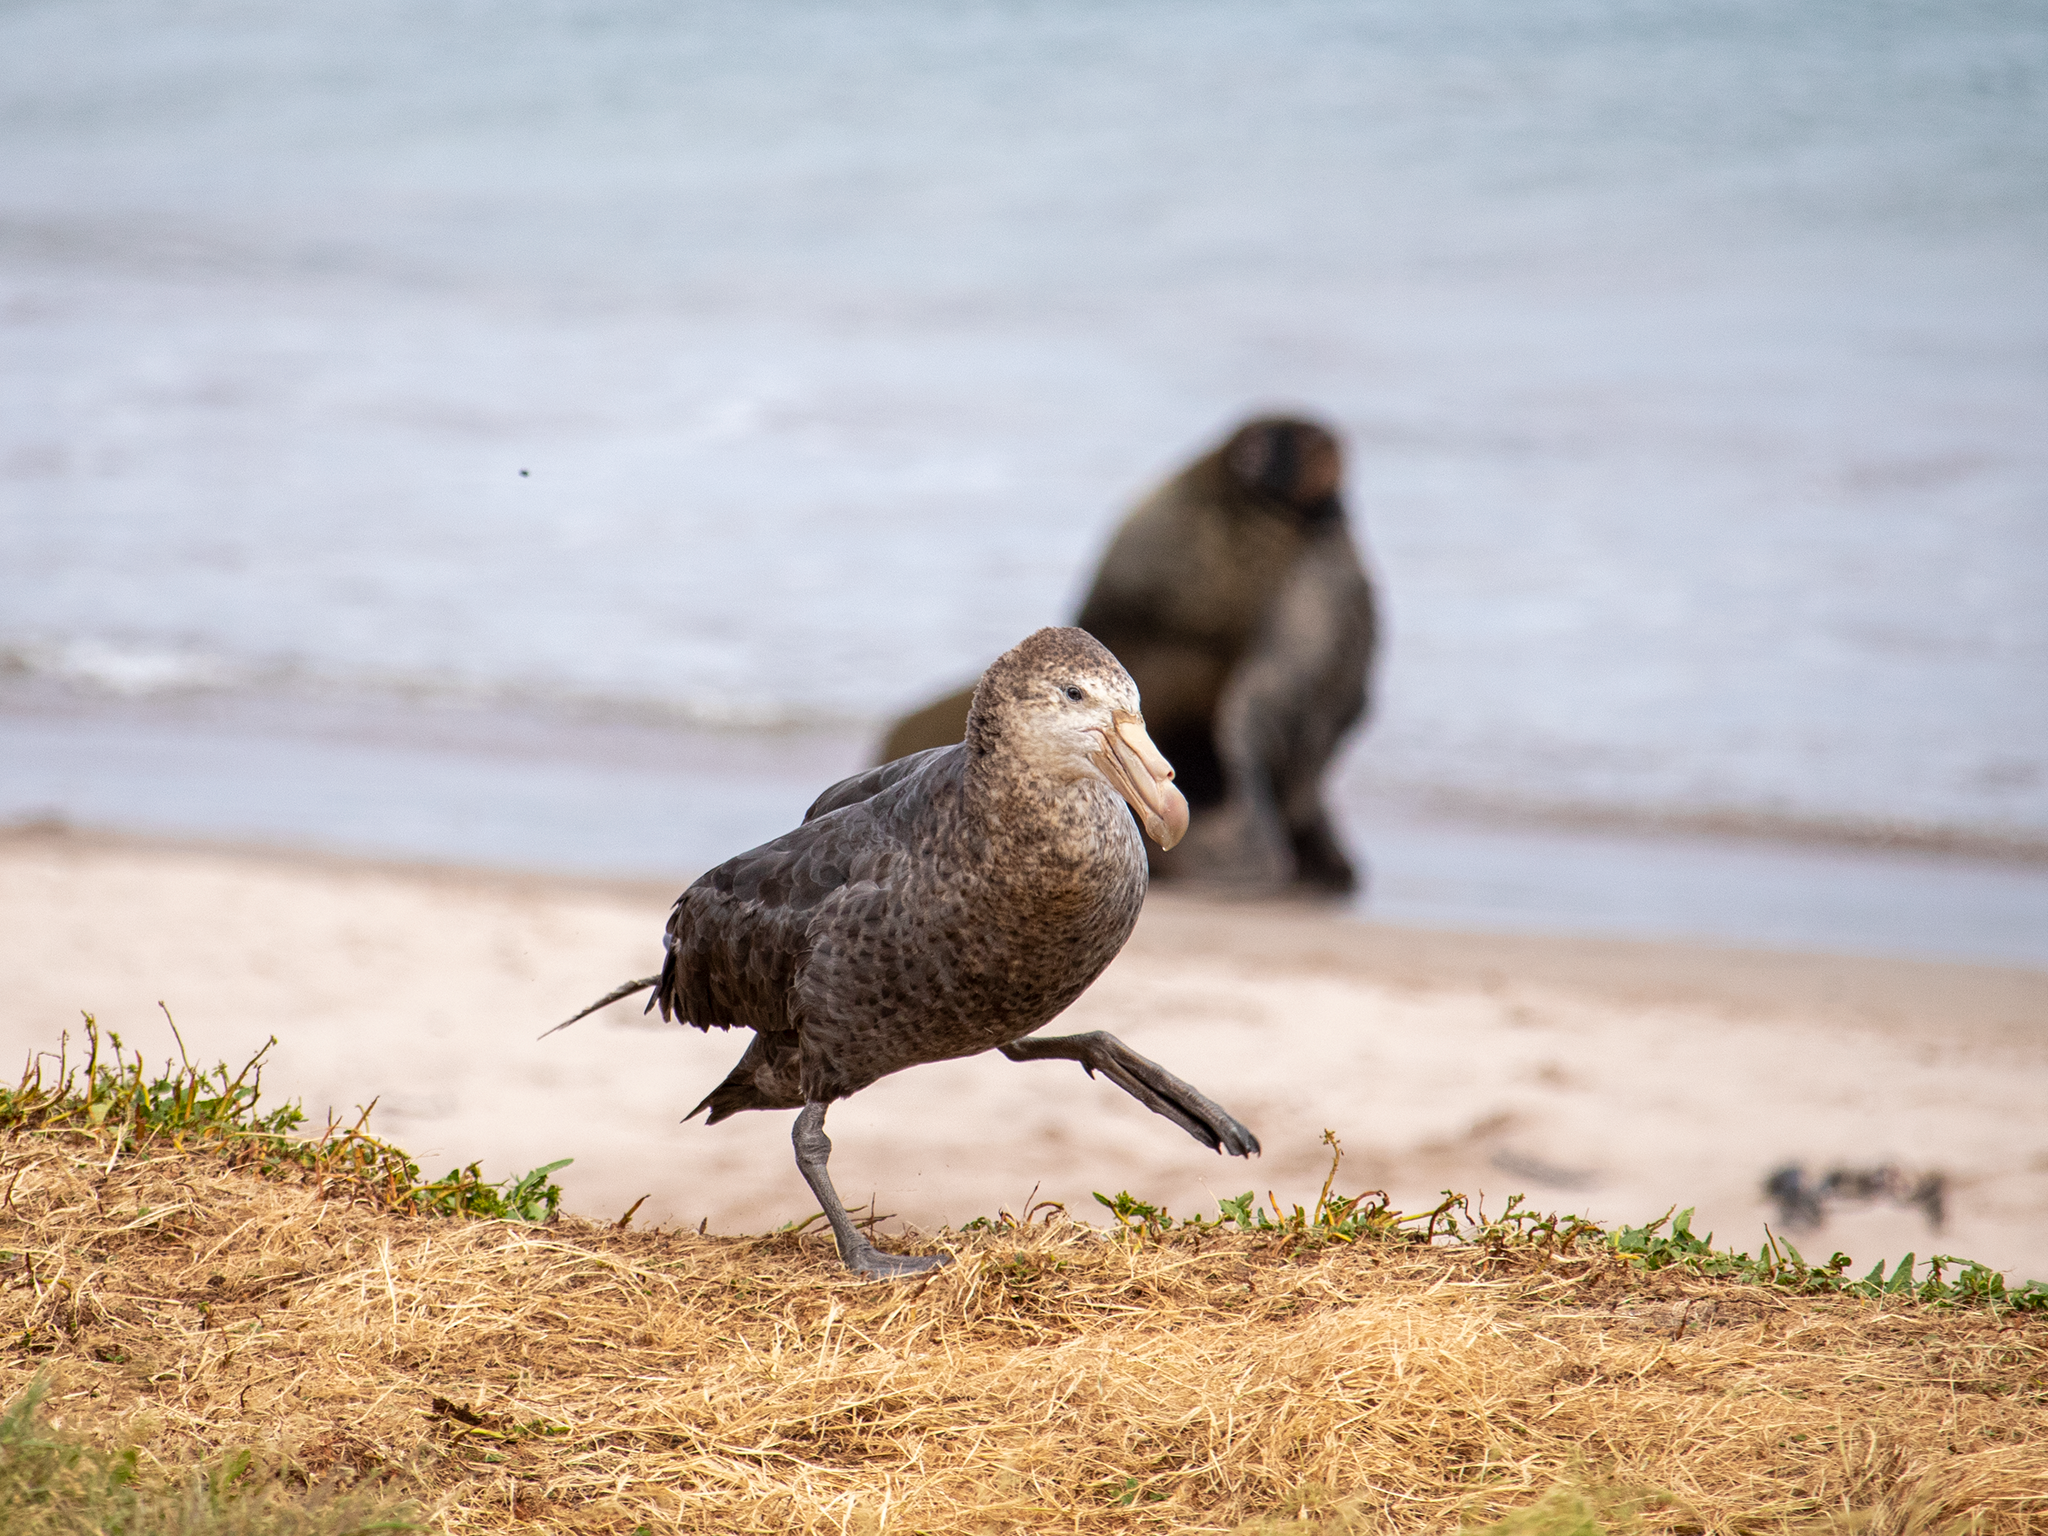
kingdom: Animalia
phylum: Chordata
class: Aves
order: Procellariiformes
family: Procellariidae
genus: Macronectes
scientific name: Macronectes halli
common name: Northern giant petrel
